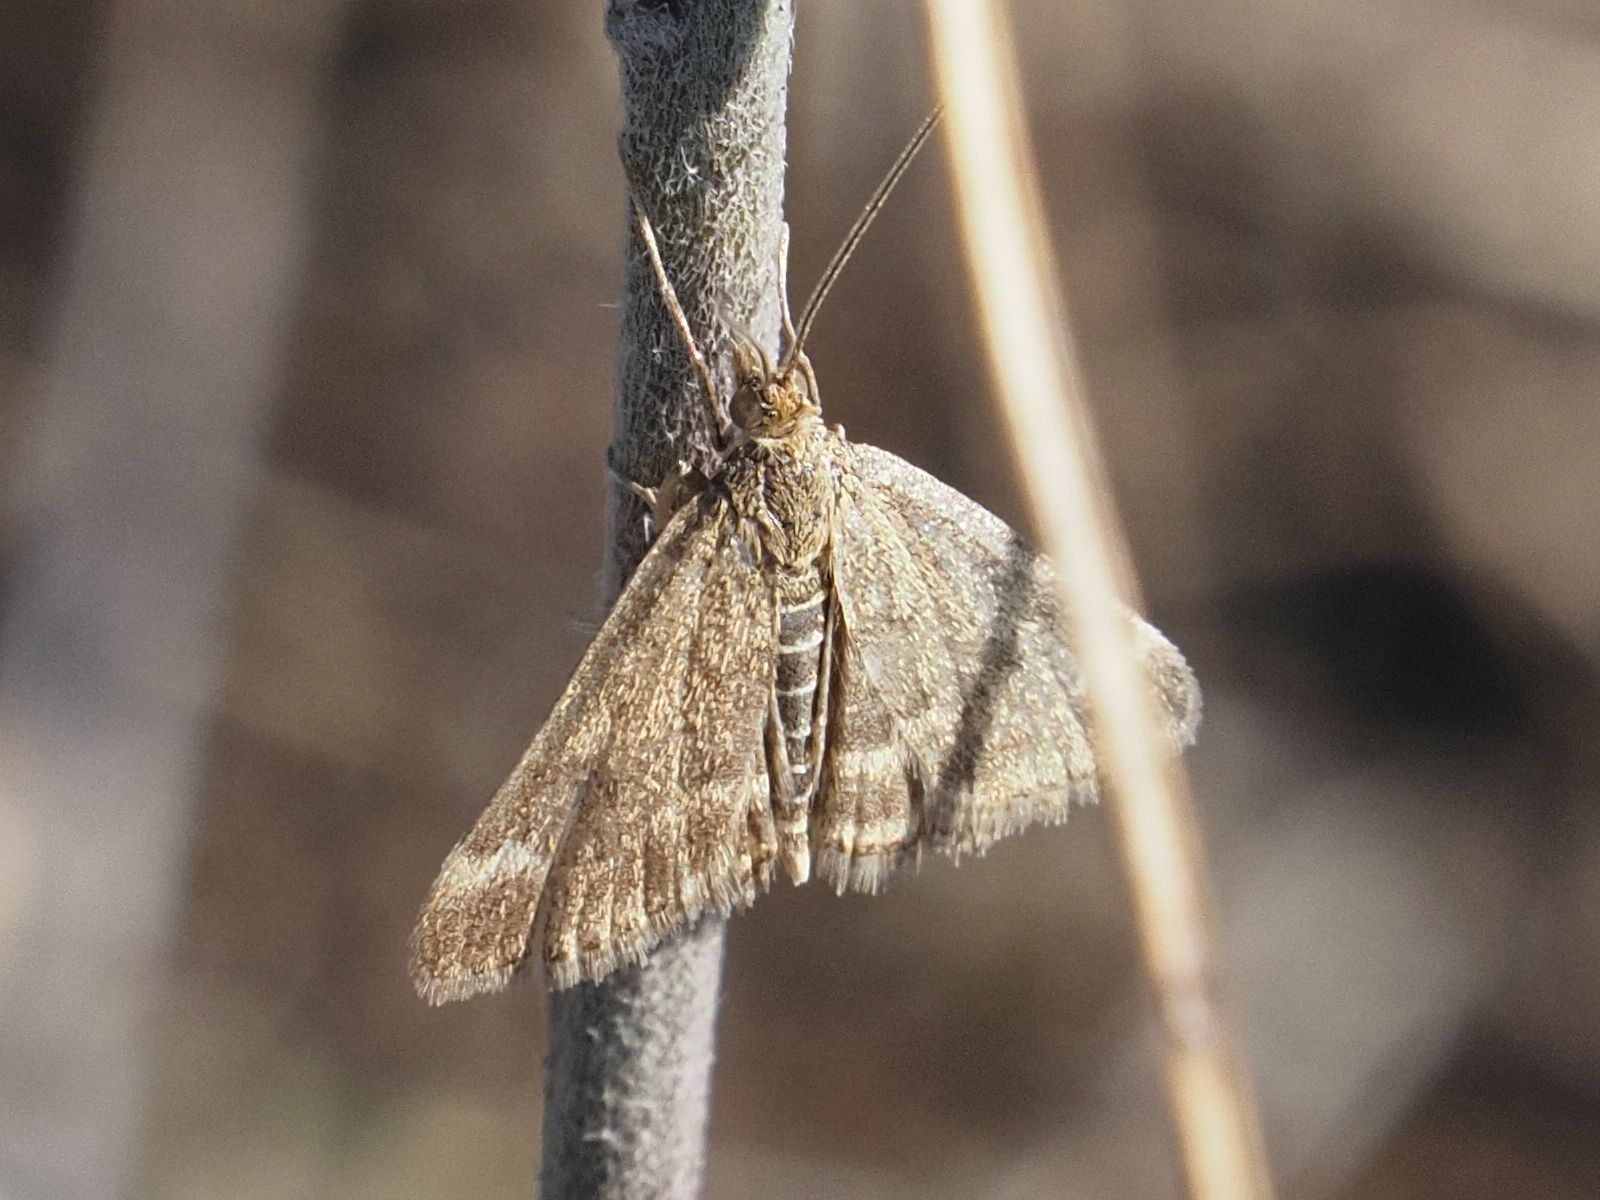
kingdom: Animalia
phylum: Arthropoda
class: Insecta
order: Lepidoptera
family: Crambidae
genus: Pyrausta
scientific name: Pyrausta despicata
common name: Straw-barred pearl
